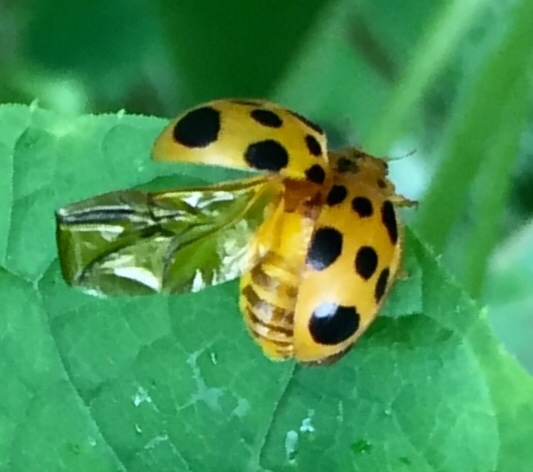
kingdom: Animalia
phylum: Arthropoda
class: Insecta
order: Coleoptera
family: Coccinellidae
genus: Epilachna
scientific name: Epilachna borealis
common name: Squash beetle
